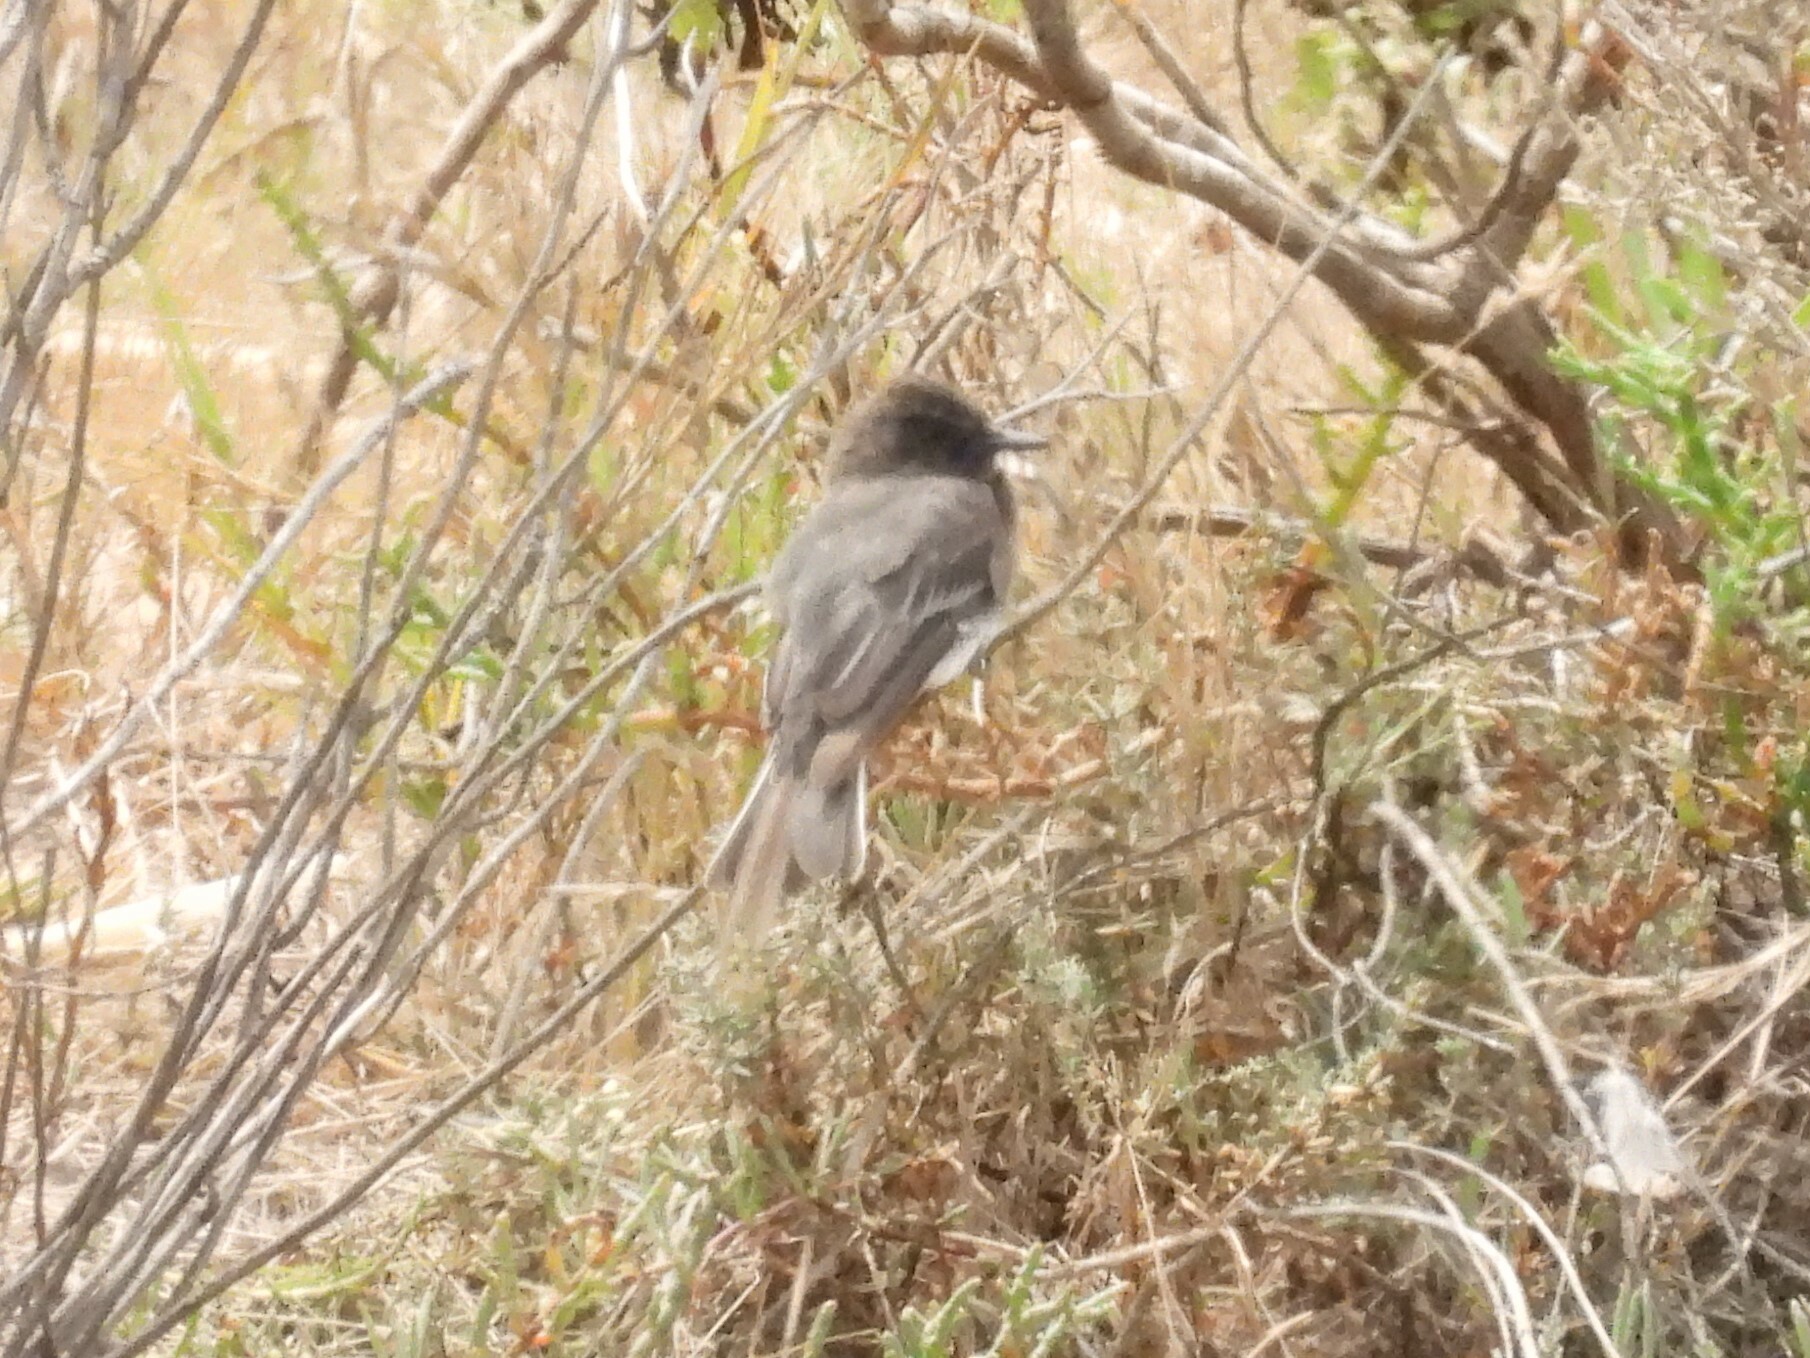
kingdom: Animalia
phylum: Chordata
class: Aves
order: Passeriformes
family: Tyrannidae
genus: Sayornis
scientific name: Sayornis nigricans
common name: Black phoebe
